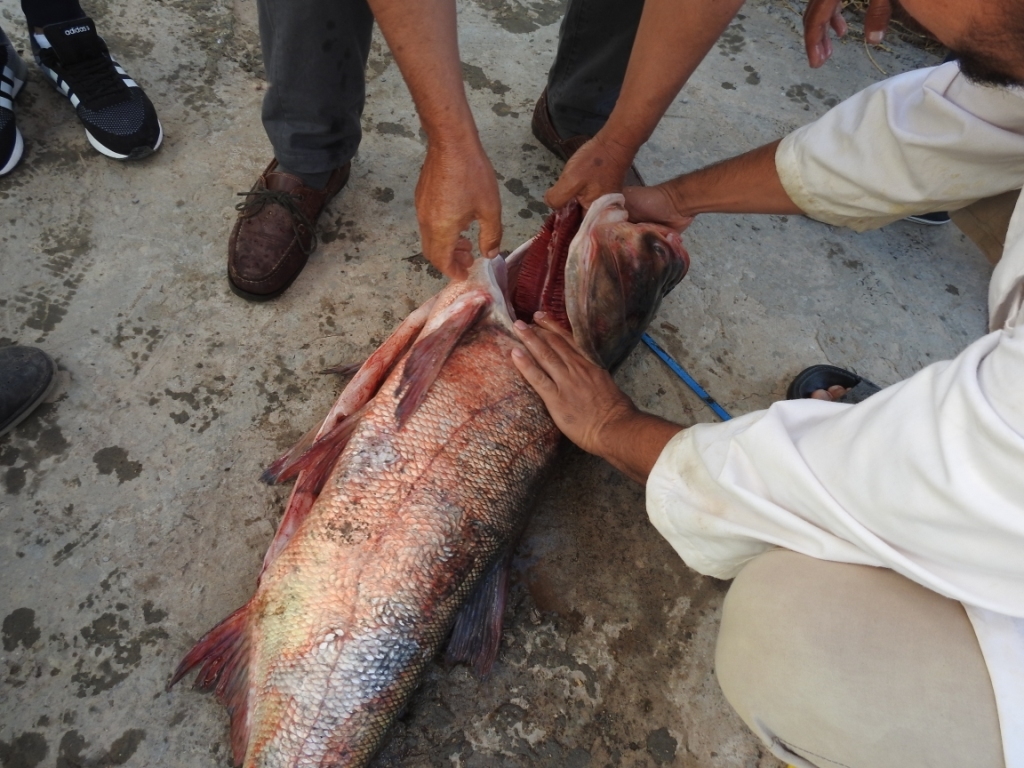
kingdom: Animalia
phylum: Chordata
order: Cypriniformes
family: Cyprinidae
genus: Hypophthalmichthys
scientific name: Hypophthalmichthys molitrix
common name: Silver carp
